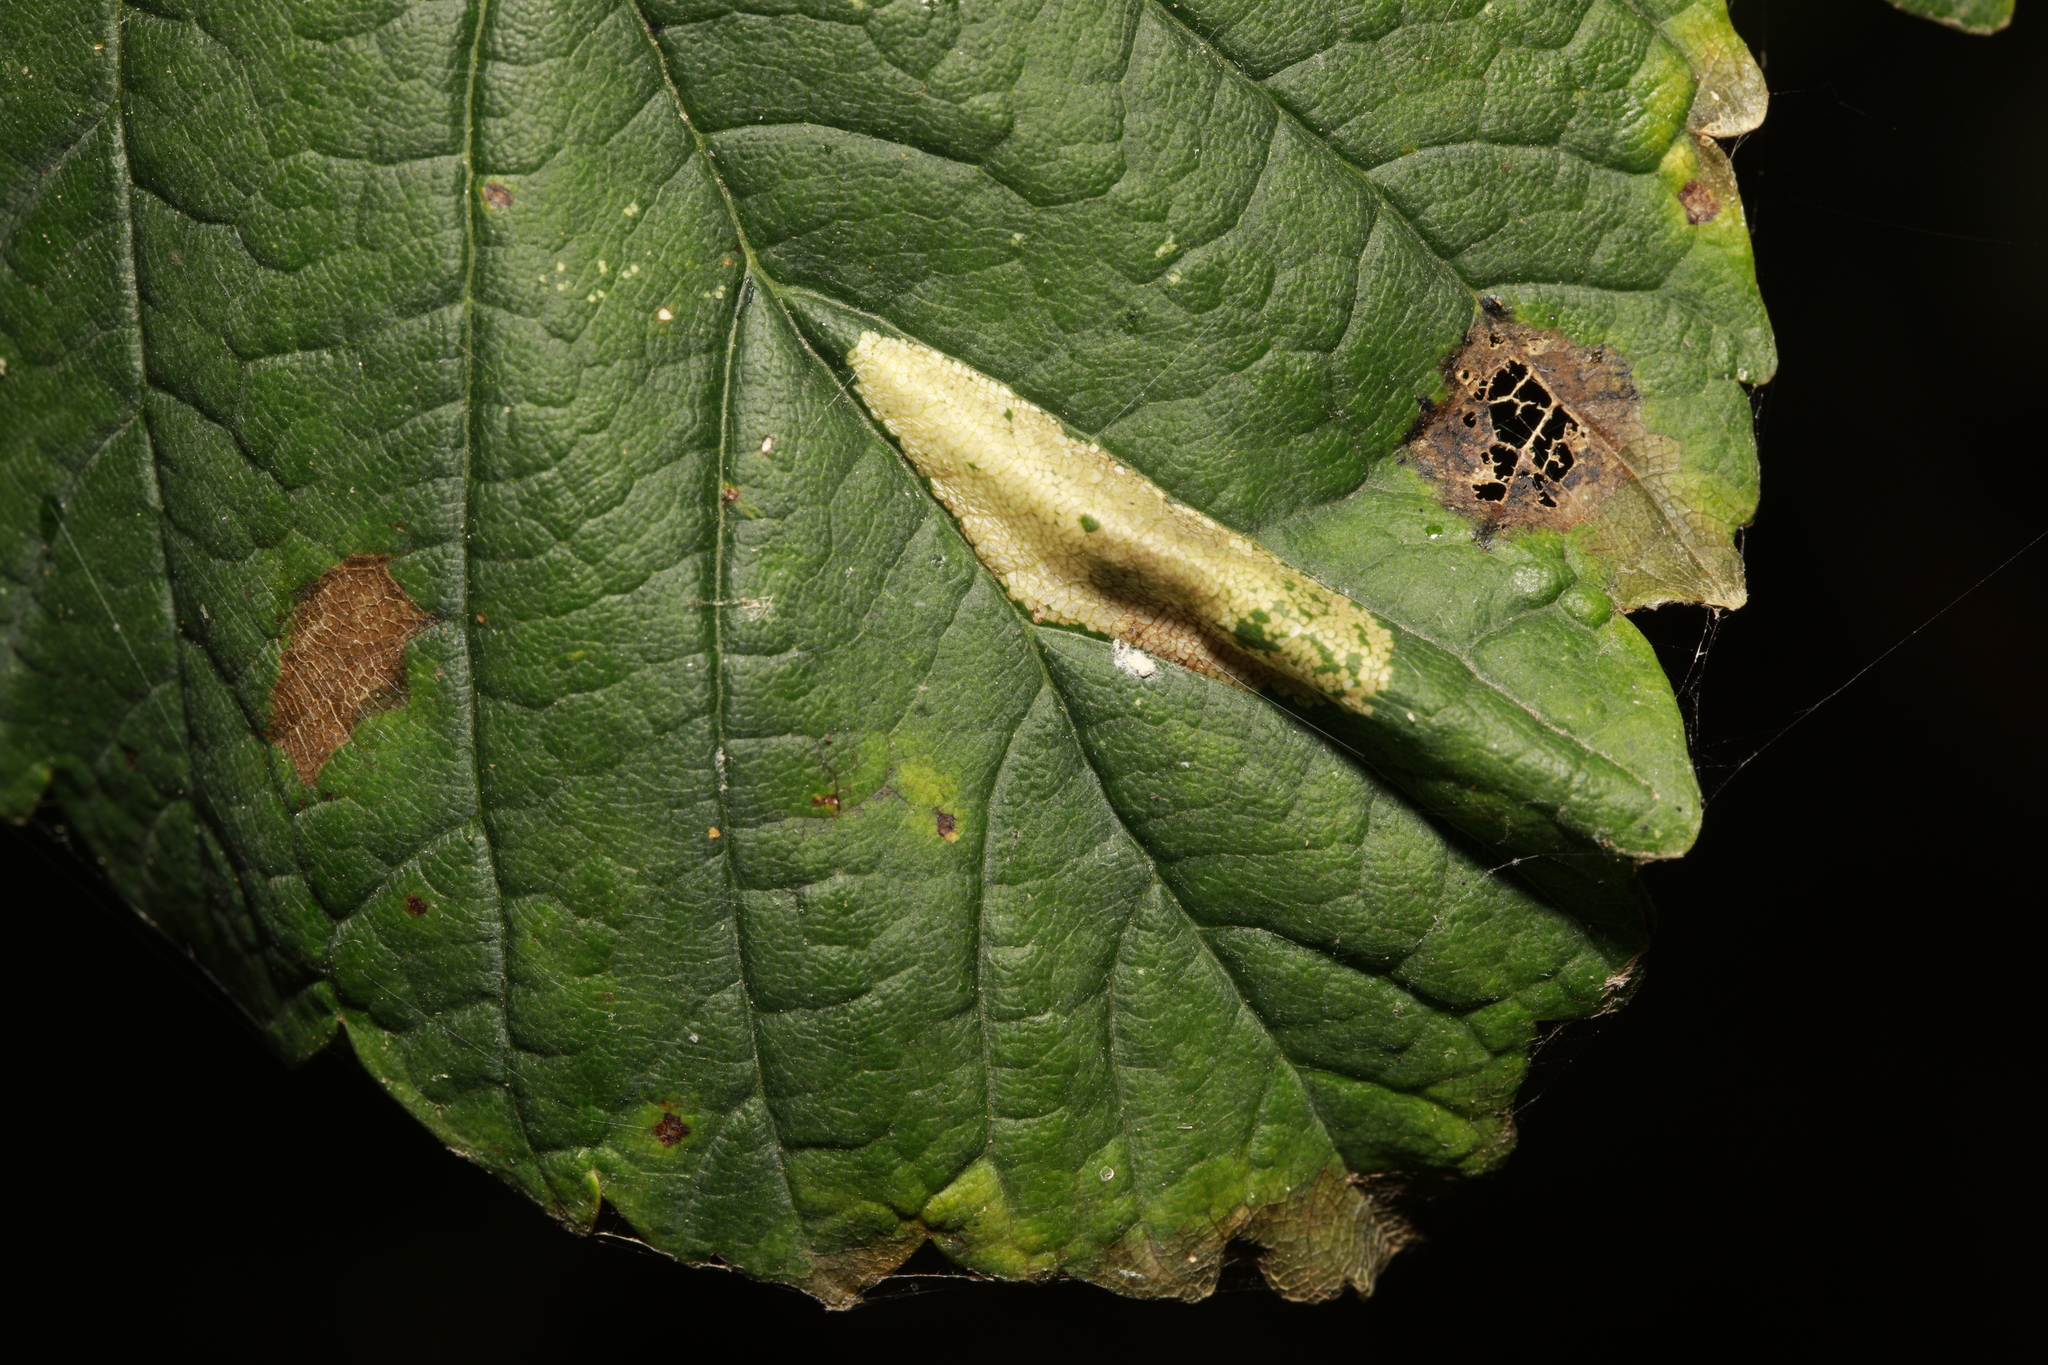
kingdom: Animalia
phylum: Arthropoda
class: Insecta
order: Lepidoptera
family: Tischeriidae
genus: Coptotriche
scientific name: Coptotriche marginea
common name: Bordered carl
